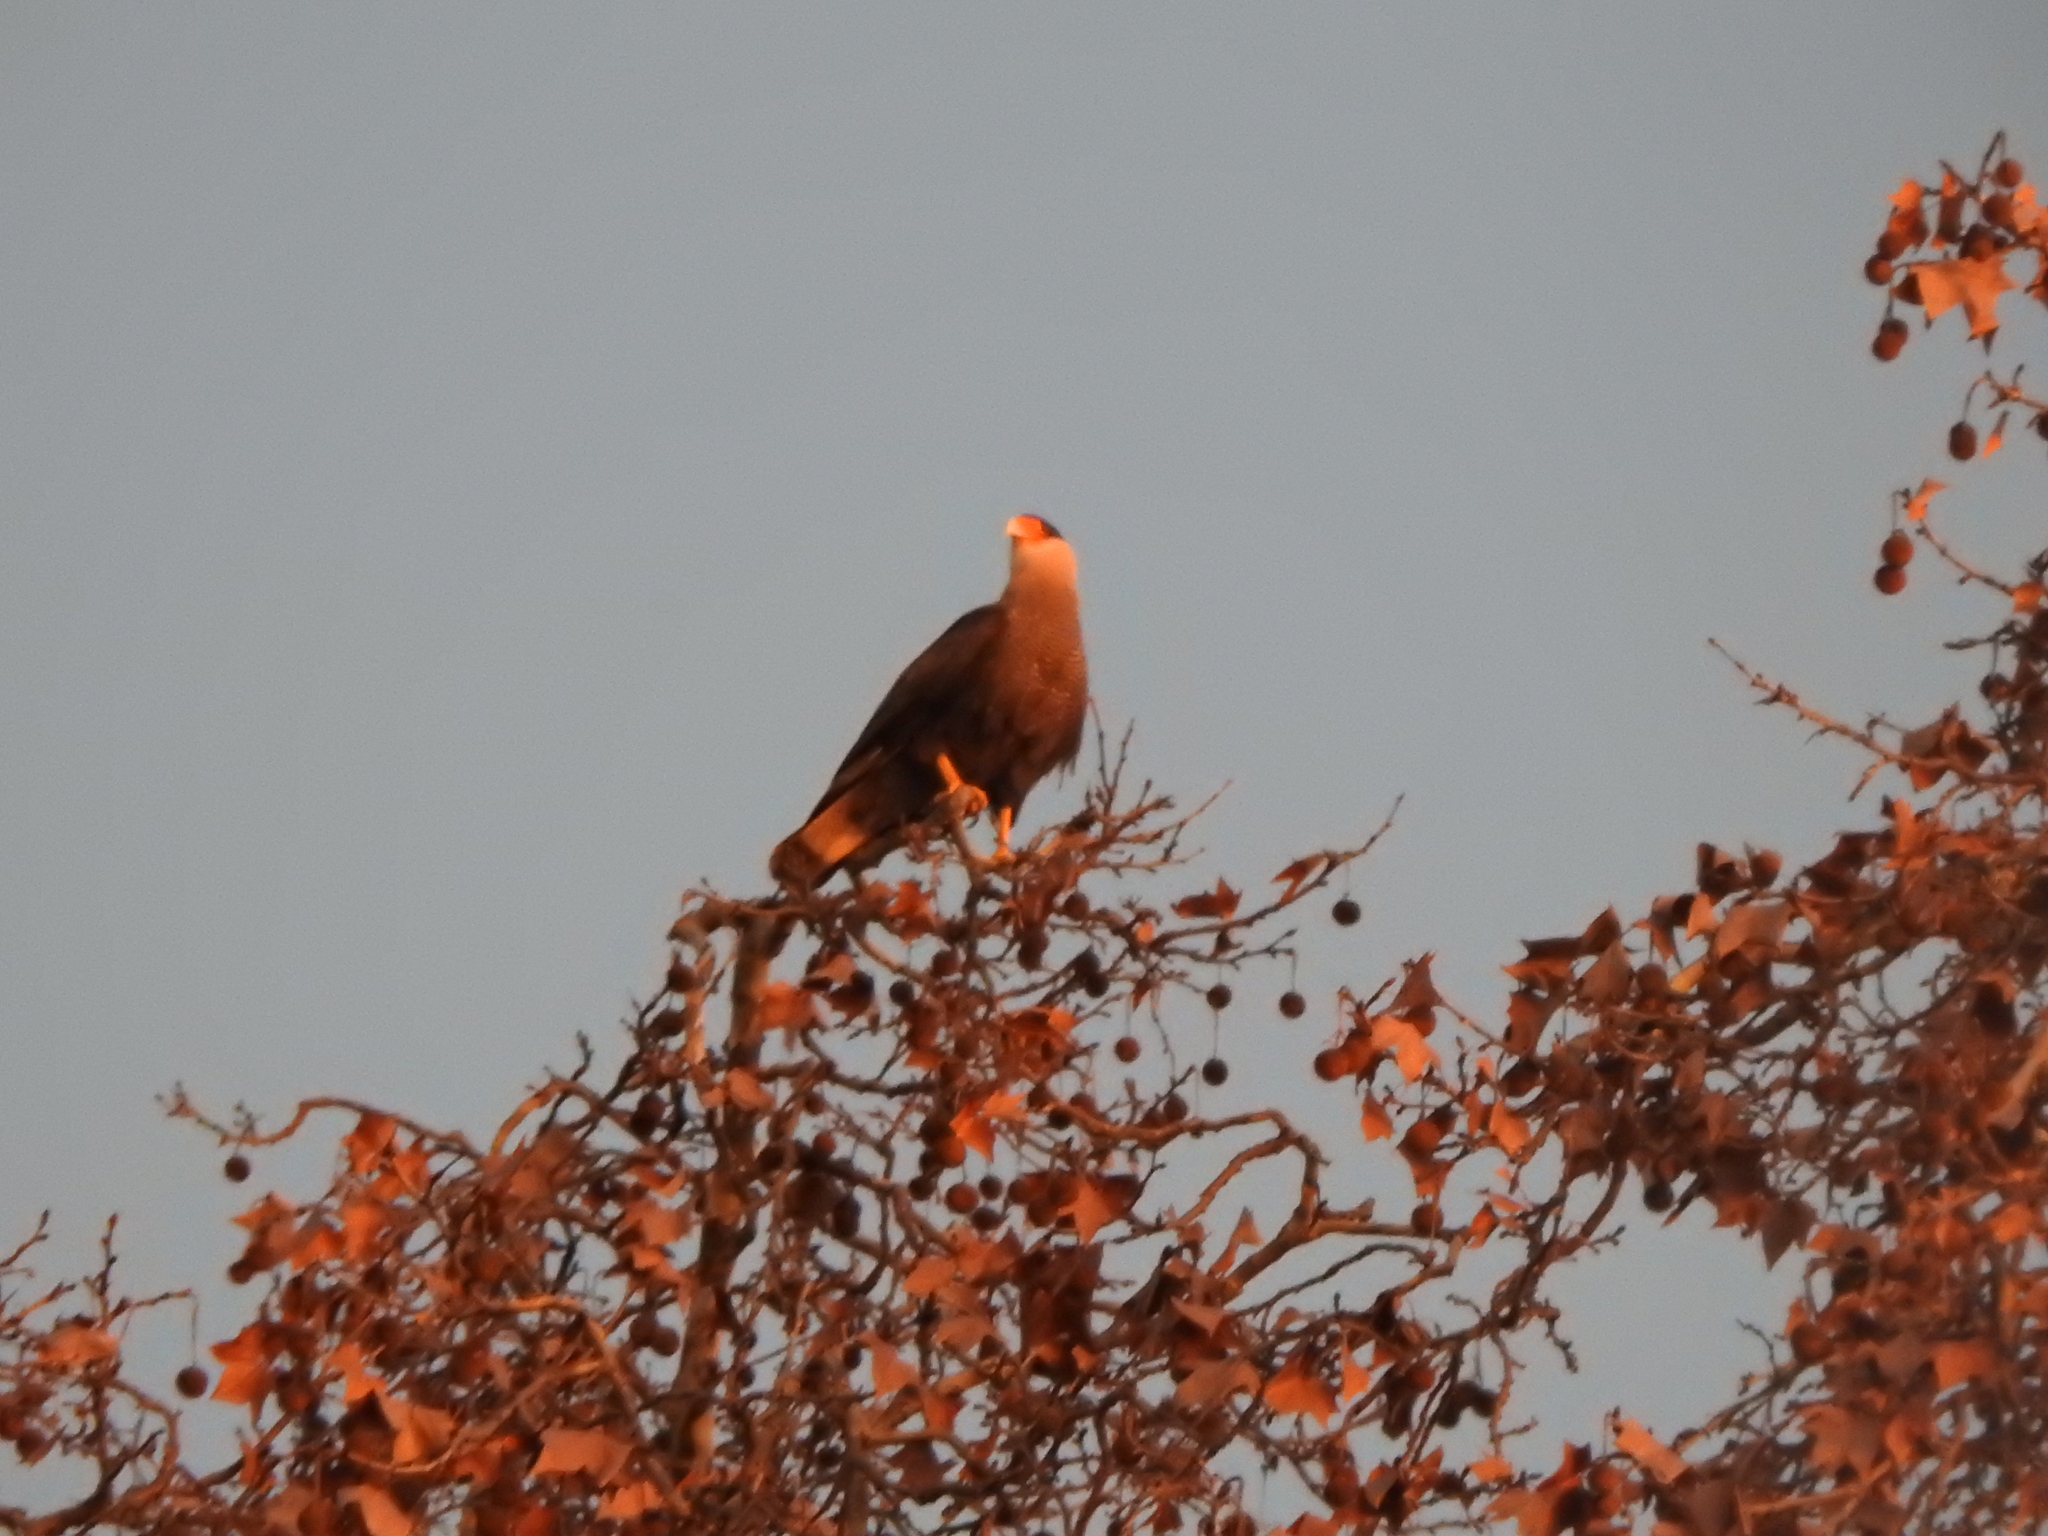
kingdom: Animalia
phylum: Chordata
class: Aves
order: Falconiformes
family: Falconidae
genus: Caracara
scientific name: Caracara plancus
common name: Southern caracara
